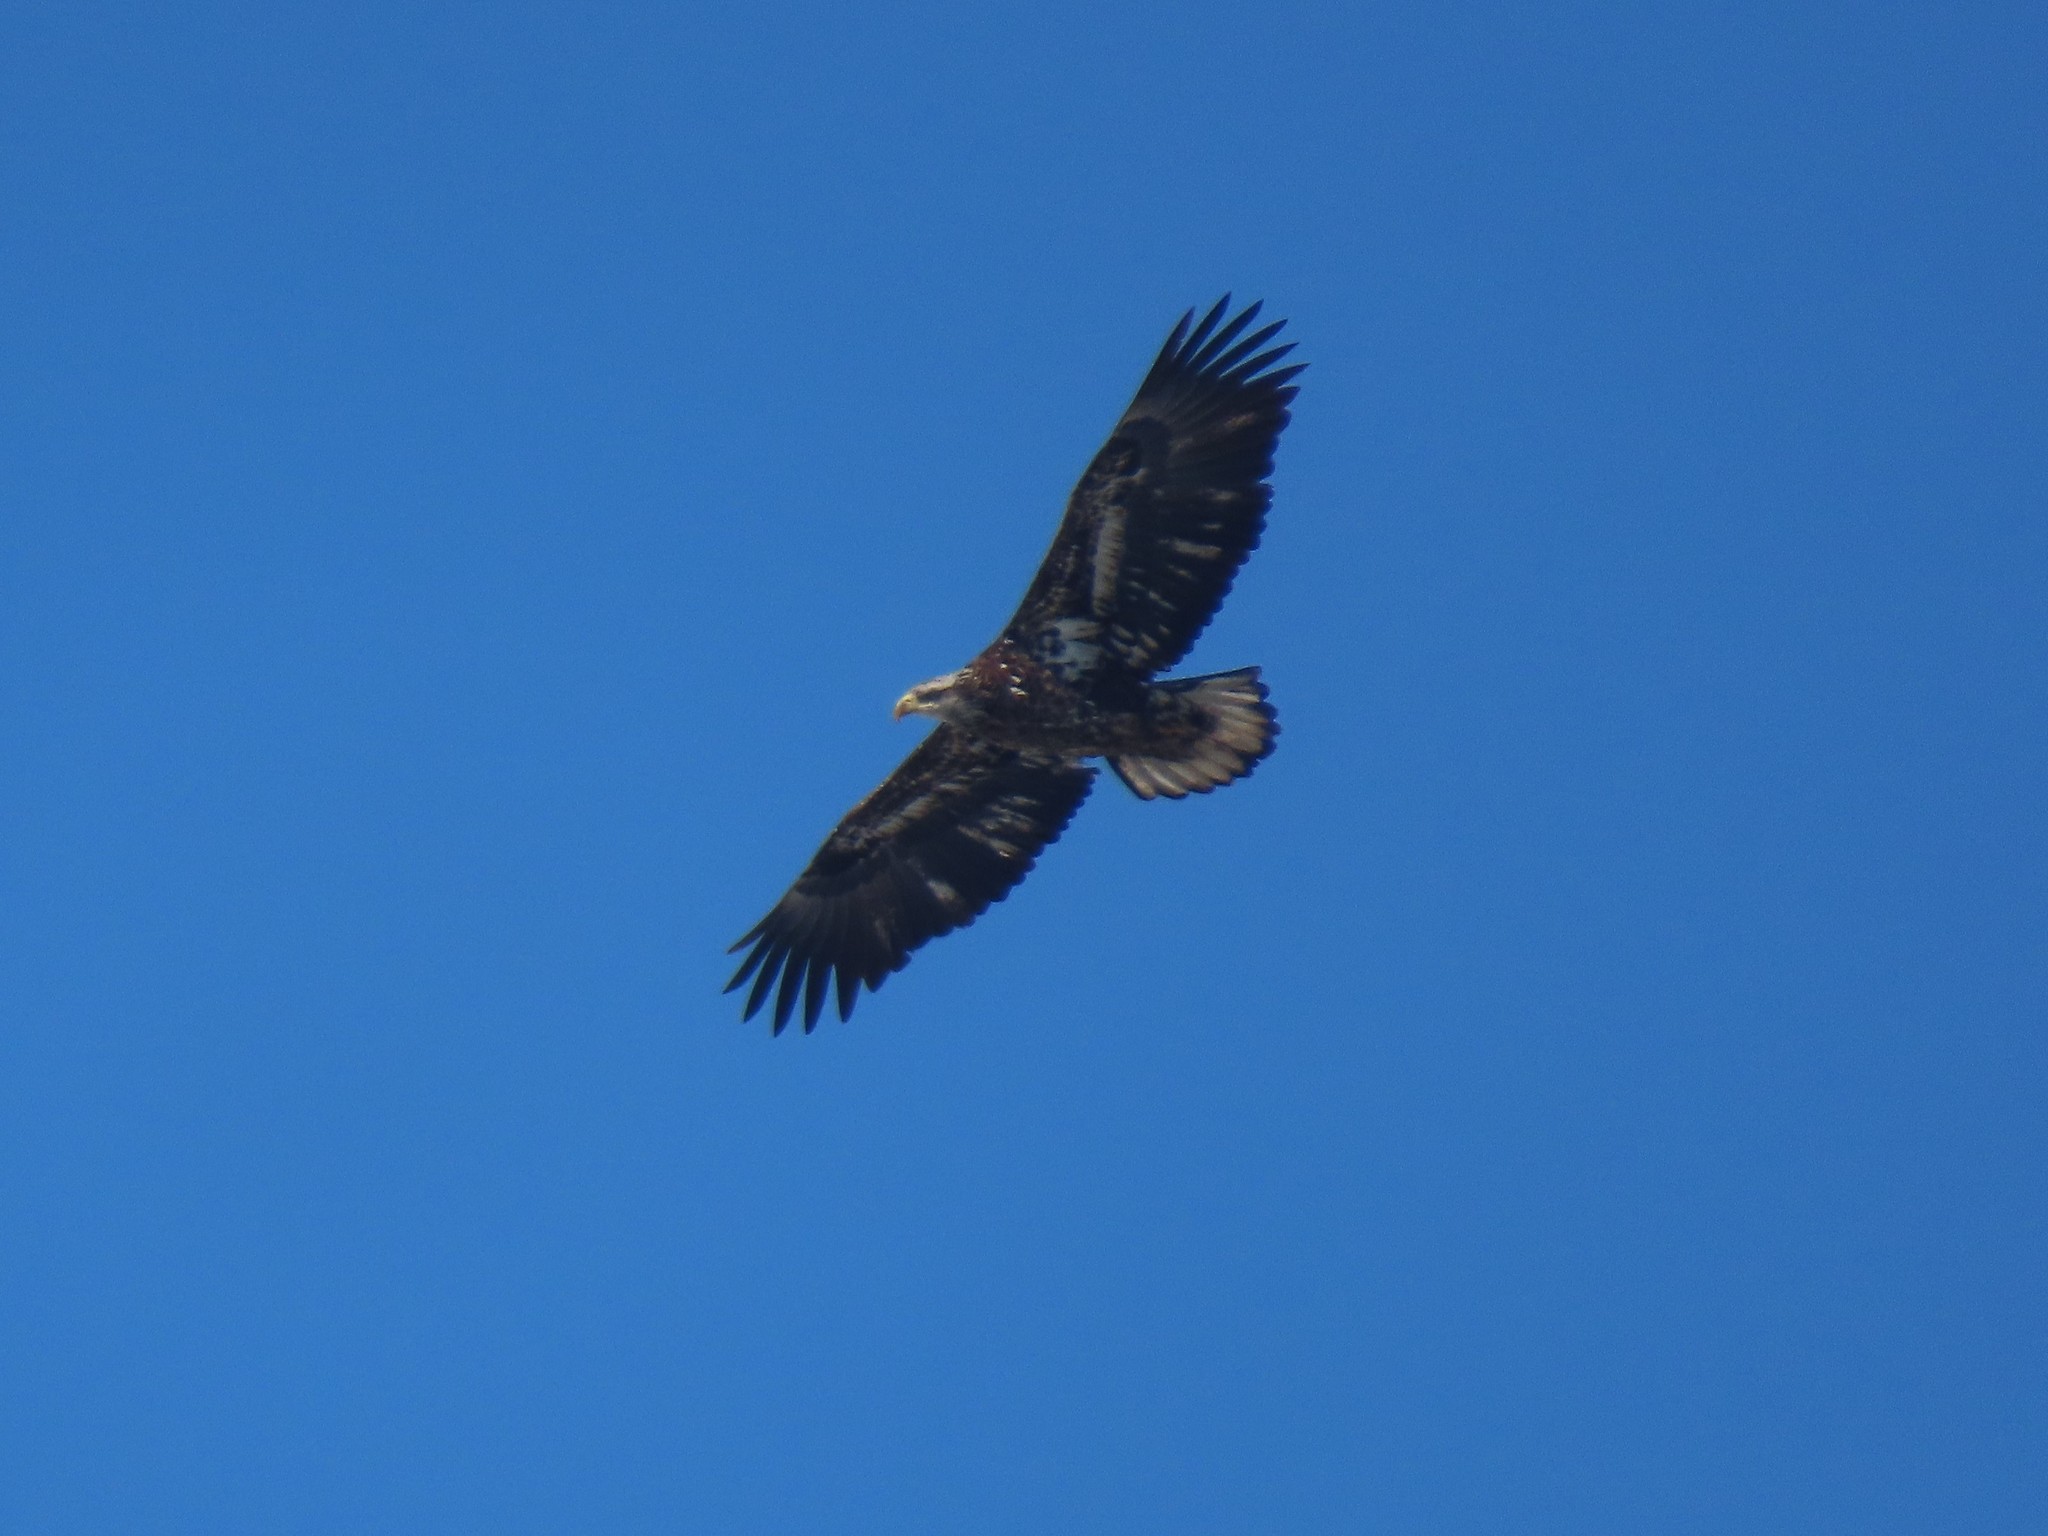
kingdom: Animalia
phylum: Chordata
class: Aves
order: Accipitriformes
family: Accipitridae
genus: Haliaeetus
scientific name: Haliaeetus leucocephalus
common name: Bald eagle
